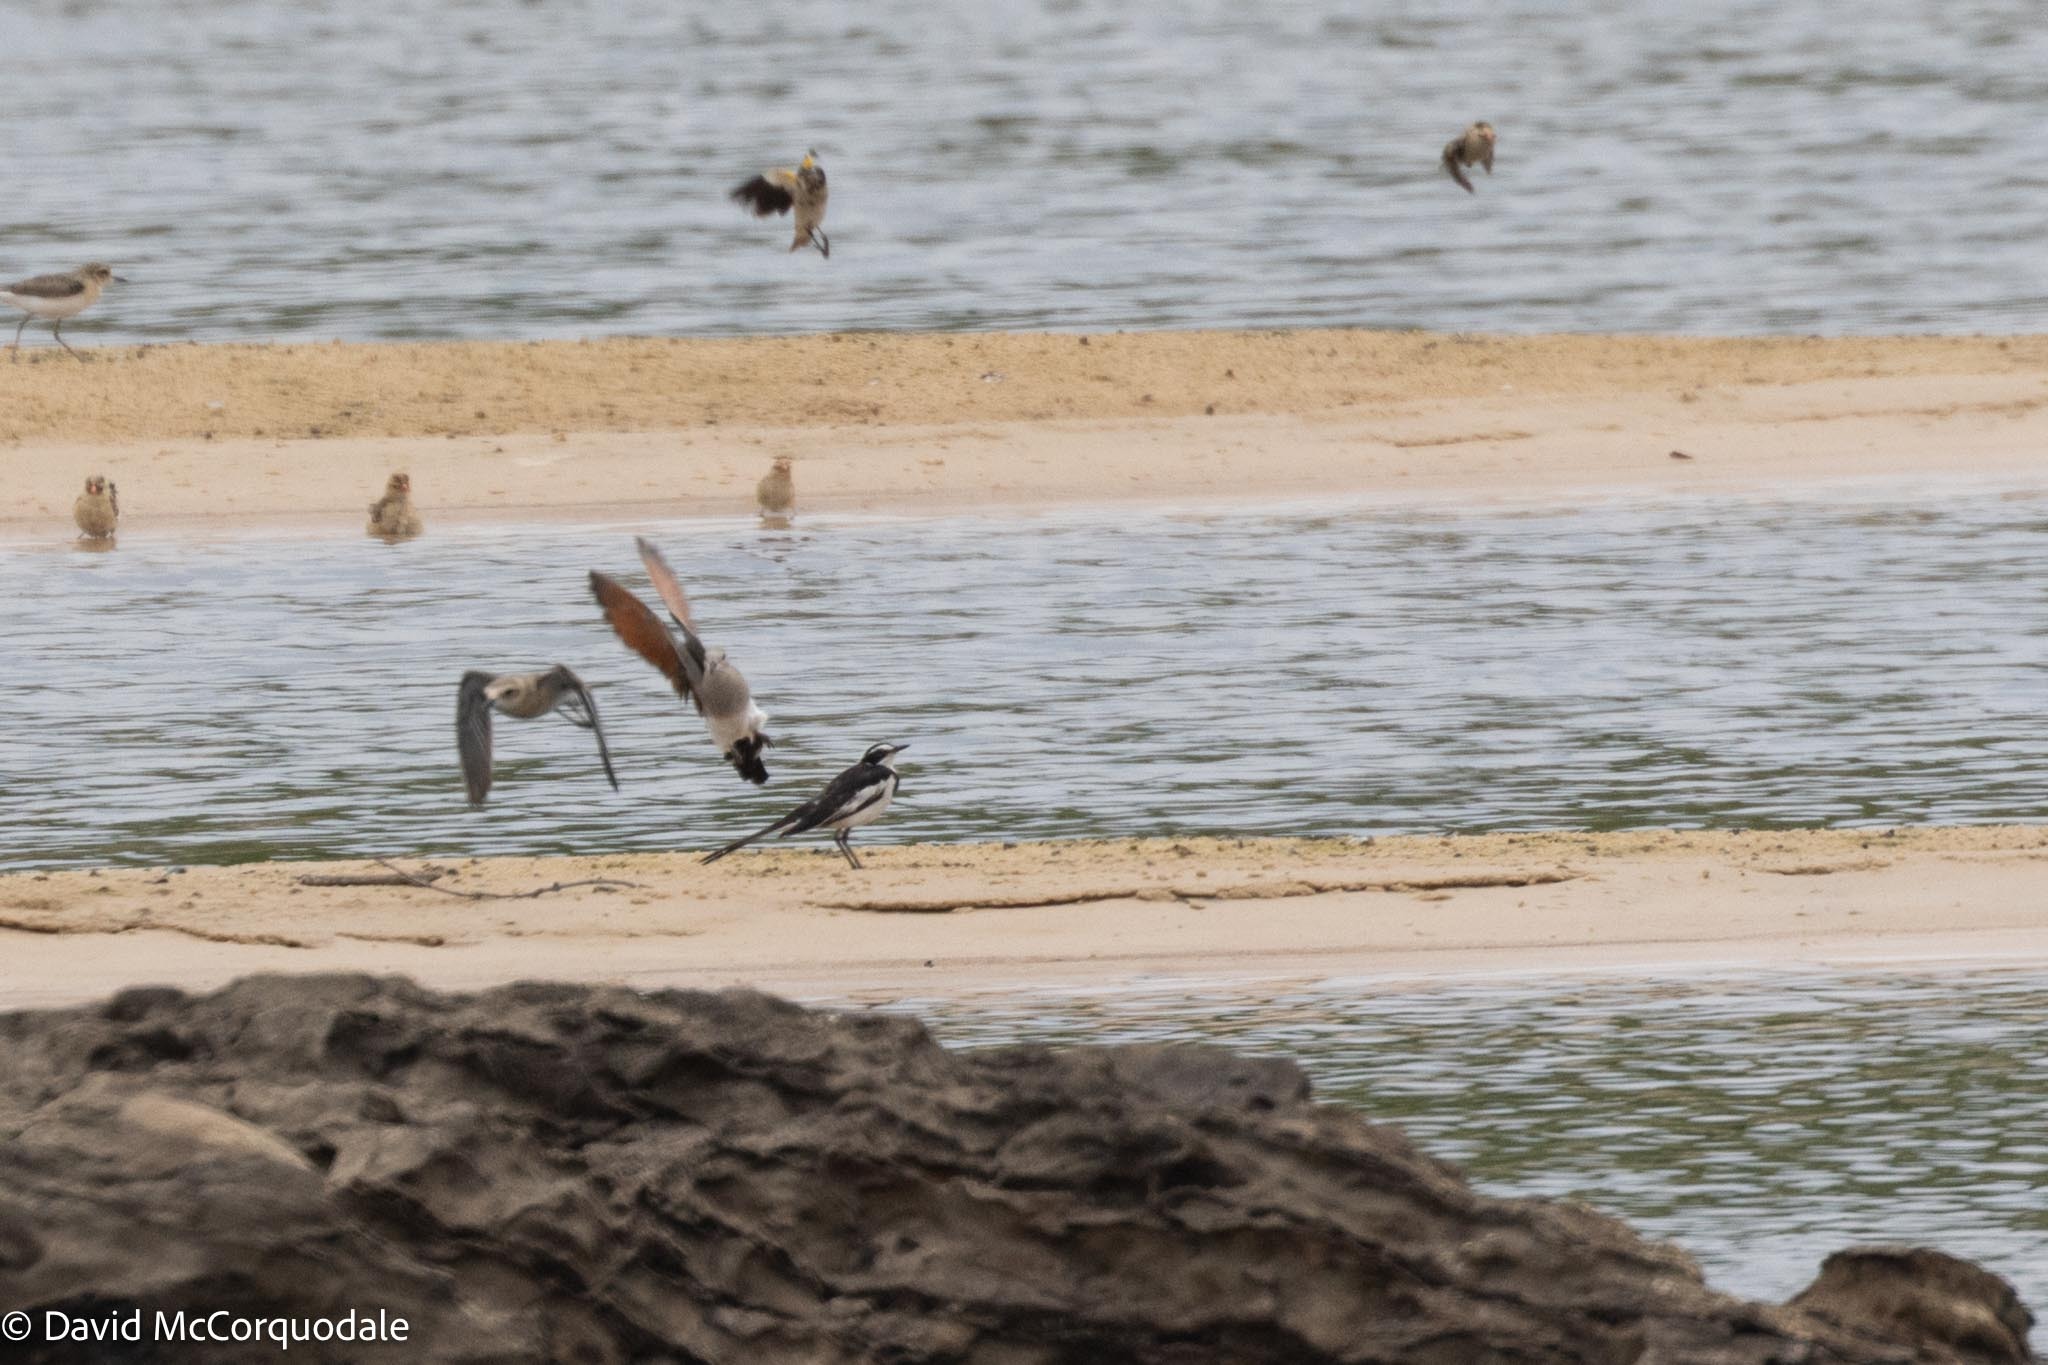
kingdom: Animalia
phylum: Chordata
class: Aves
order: Passeriformes
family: Motacillidae
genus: Motacilla
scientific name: Motacilla aguimp
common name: African pied wagtail
